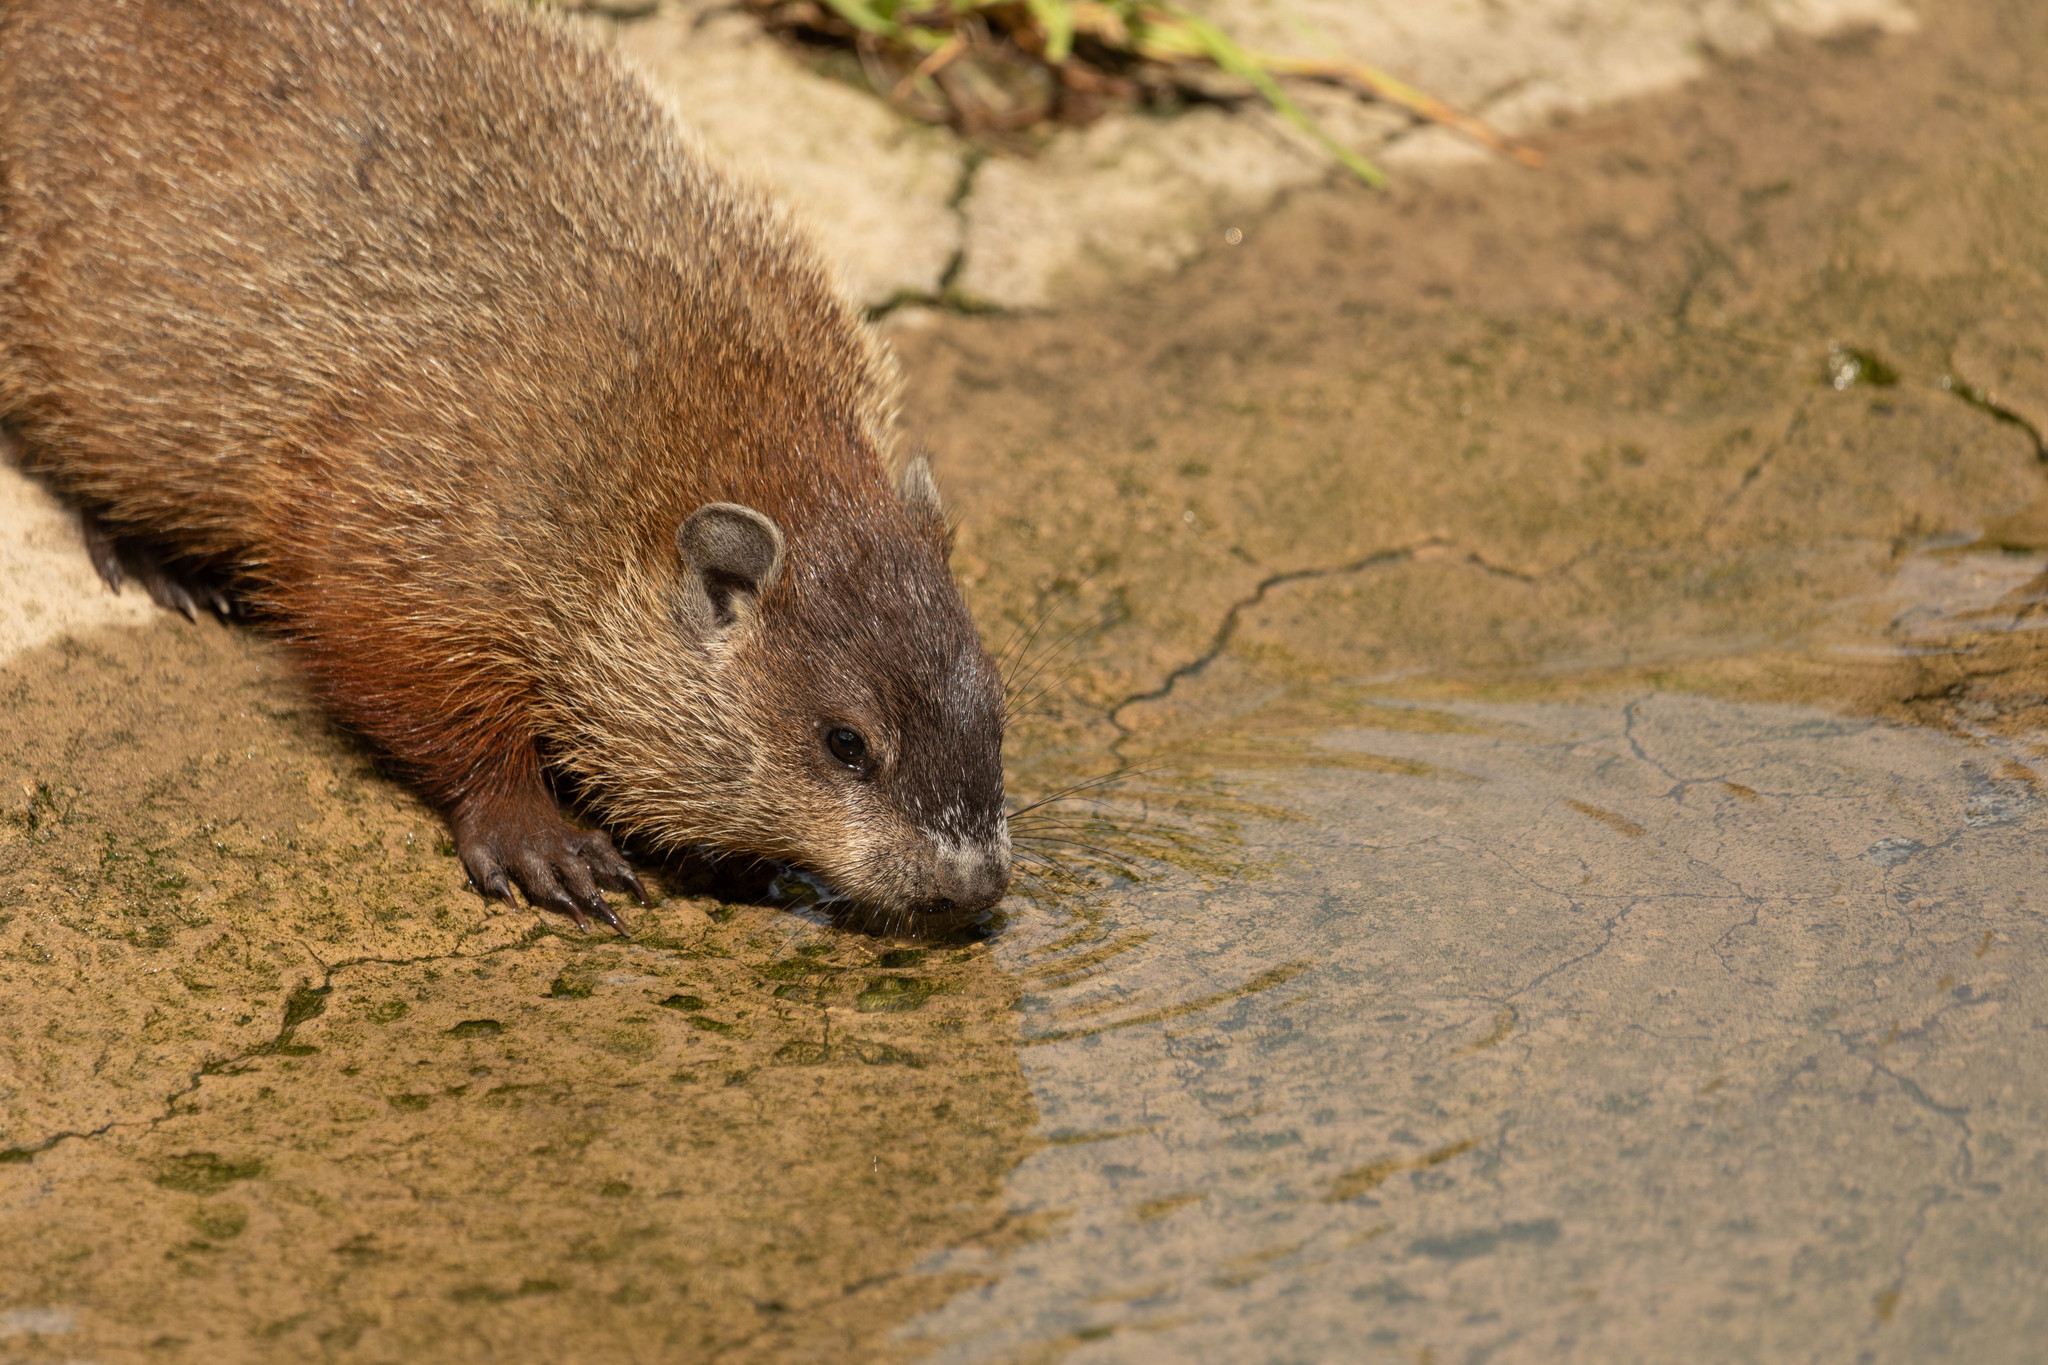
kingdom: Animalia
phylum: Chordata
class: Mammalia
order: Rodentia
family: Sciuridae
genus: Marmota
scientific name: Marmota monax
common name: Groundhog
